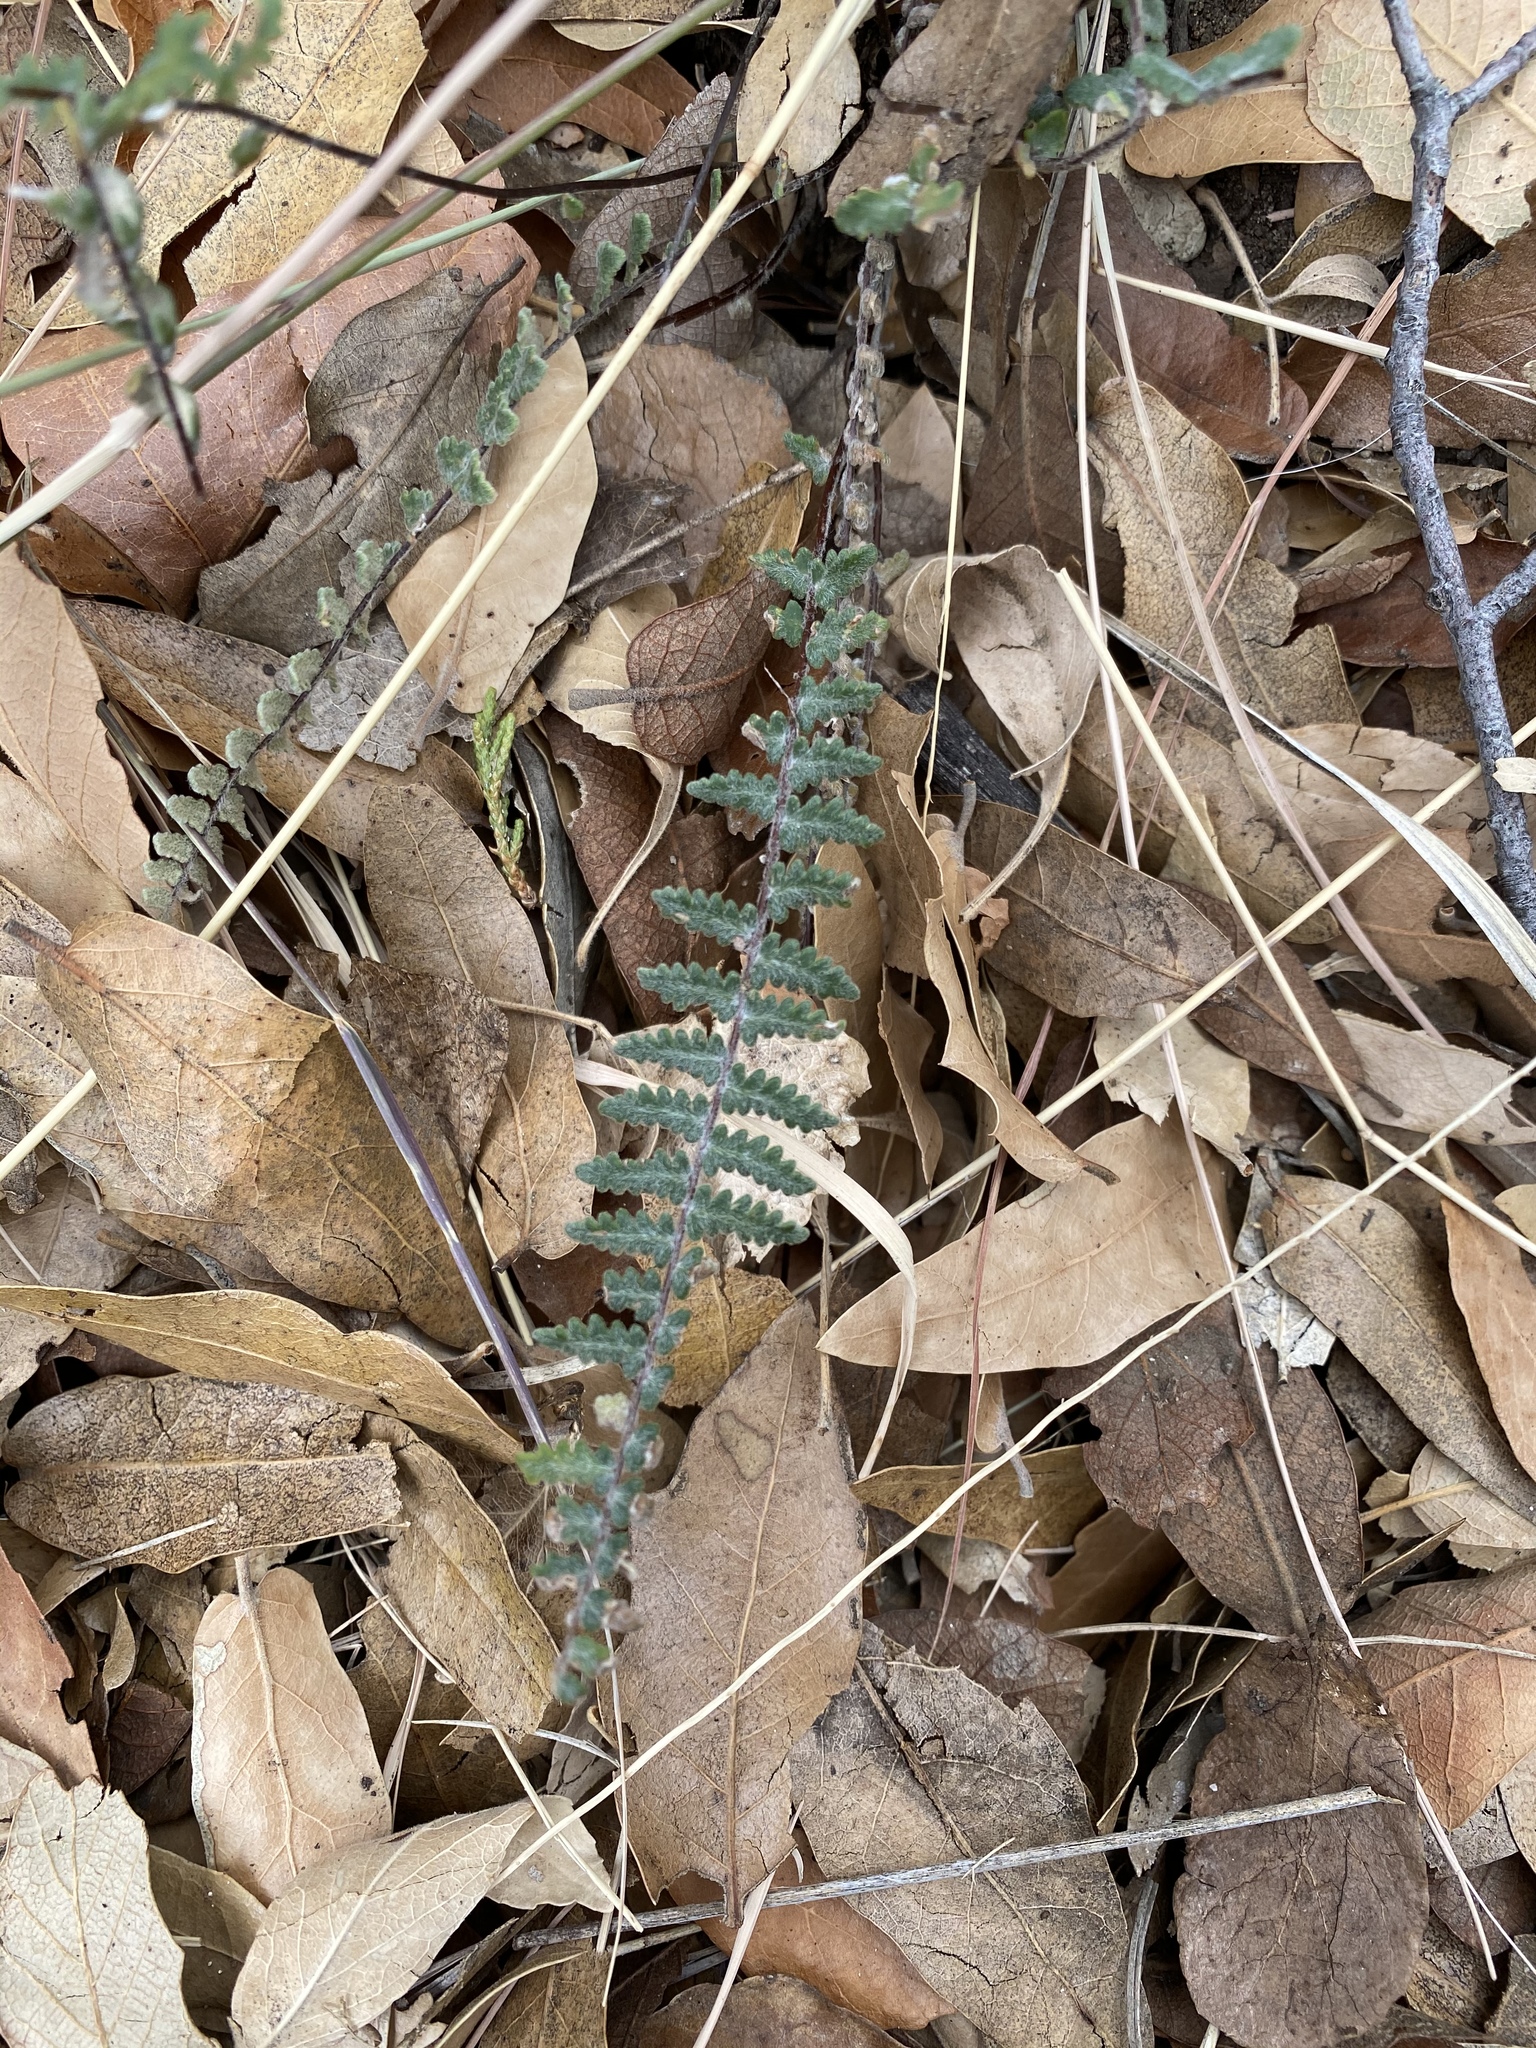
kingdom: Plantae
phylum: Tracheophyta
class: Polypodiopsida
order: Polypodiales
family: Pteridaceae
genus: Myriopteris
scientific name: Myriopteris aurea
